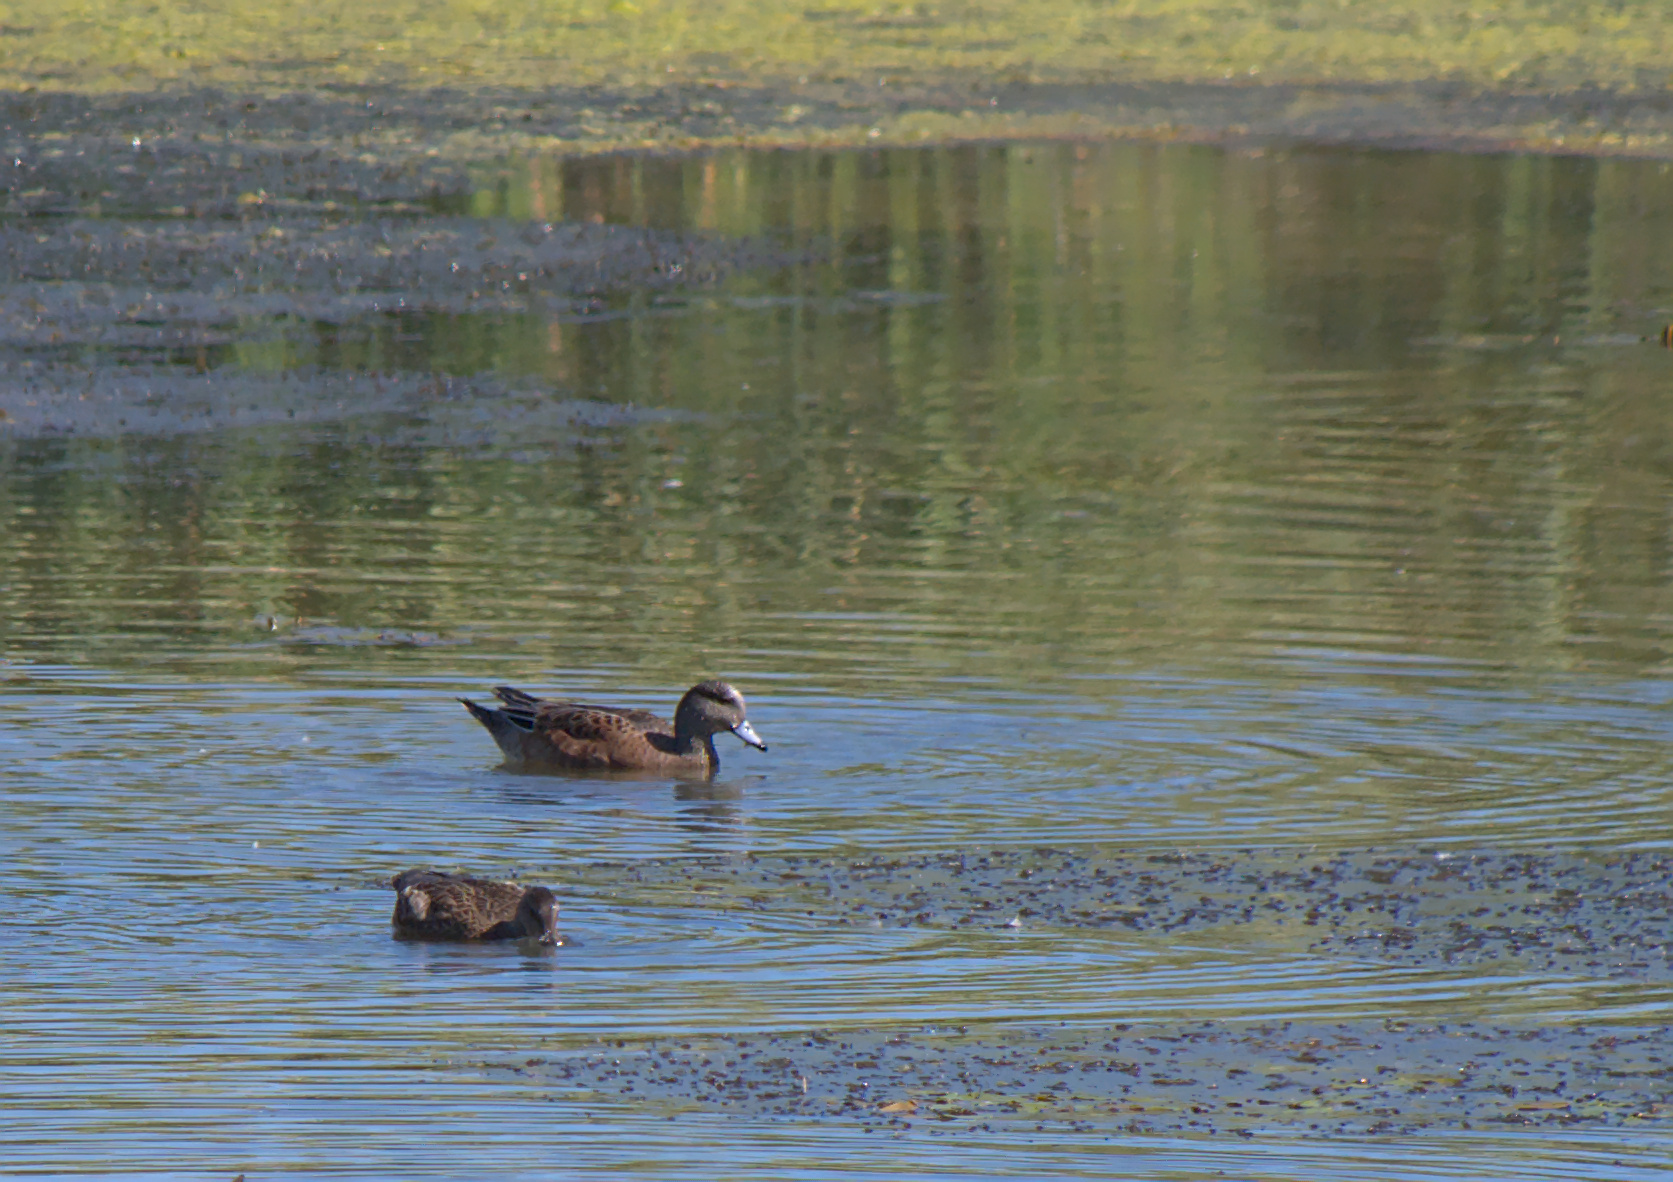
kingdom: Animalia
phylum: Chordata
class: Aves
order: Anseriformes
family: Anatidae
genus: Mareca
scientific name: Mareca americana
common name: American wigeon
